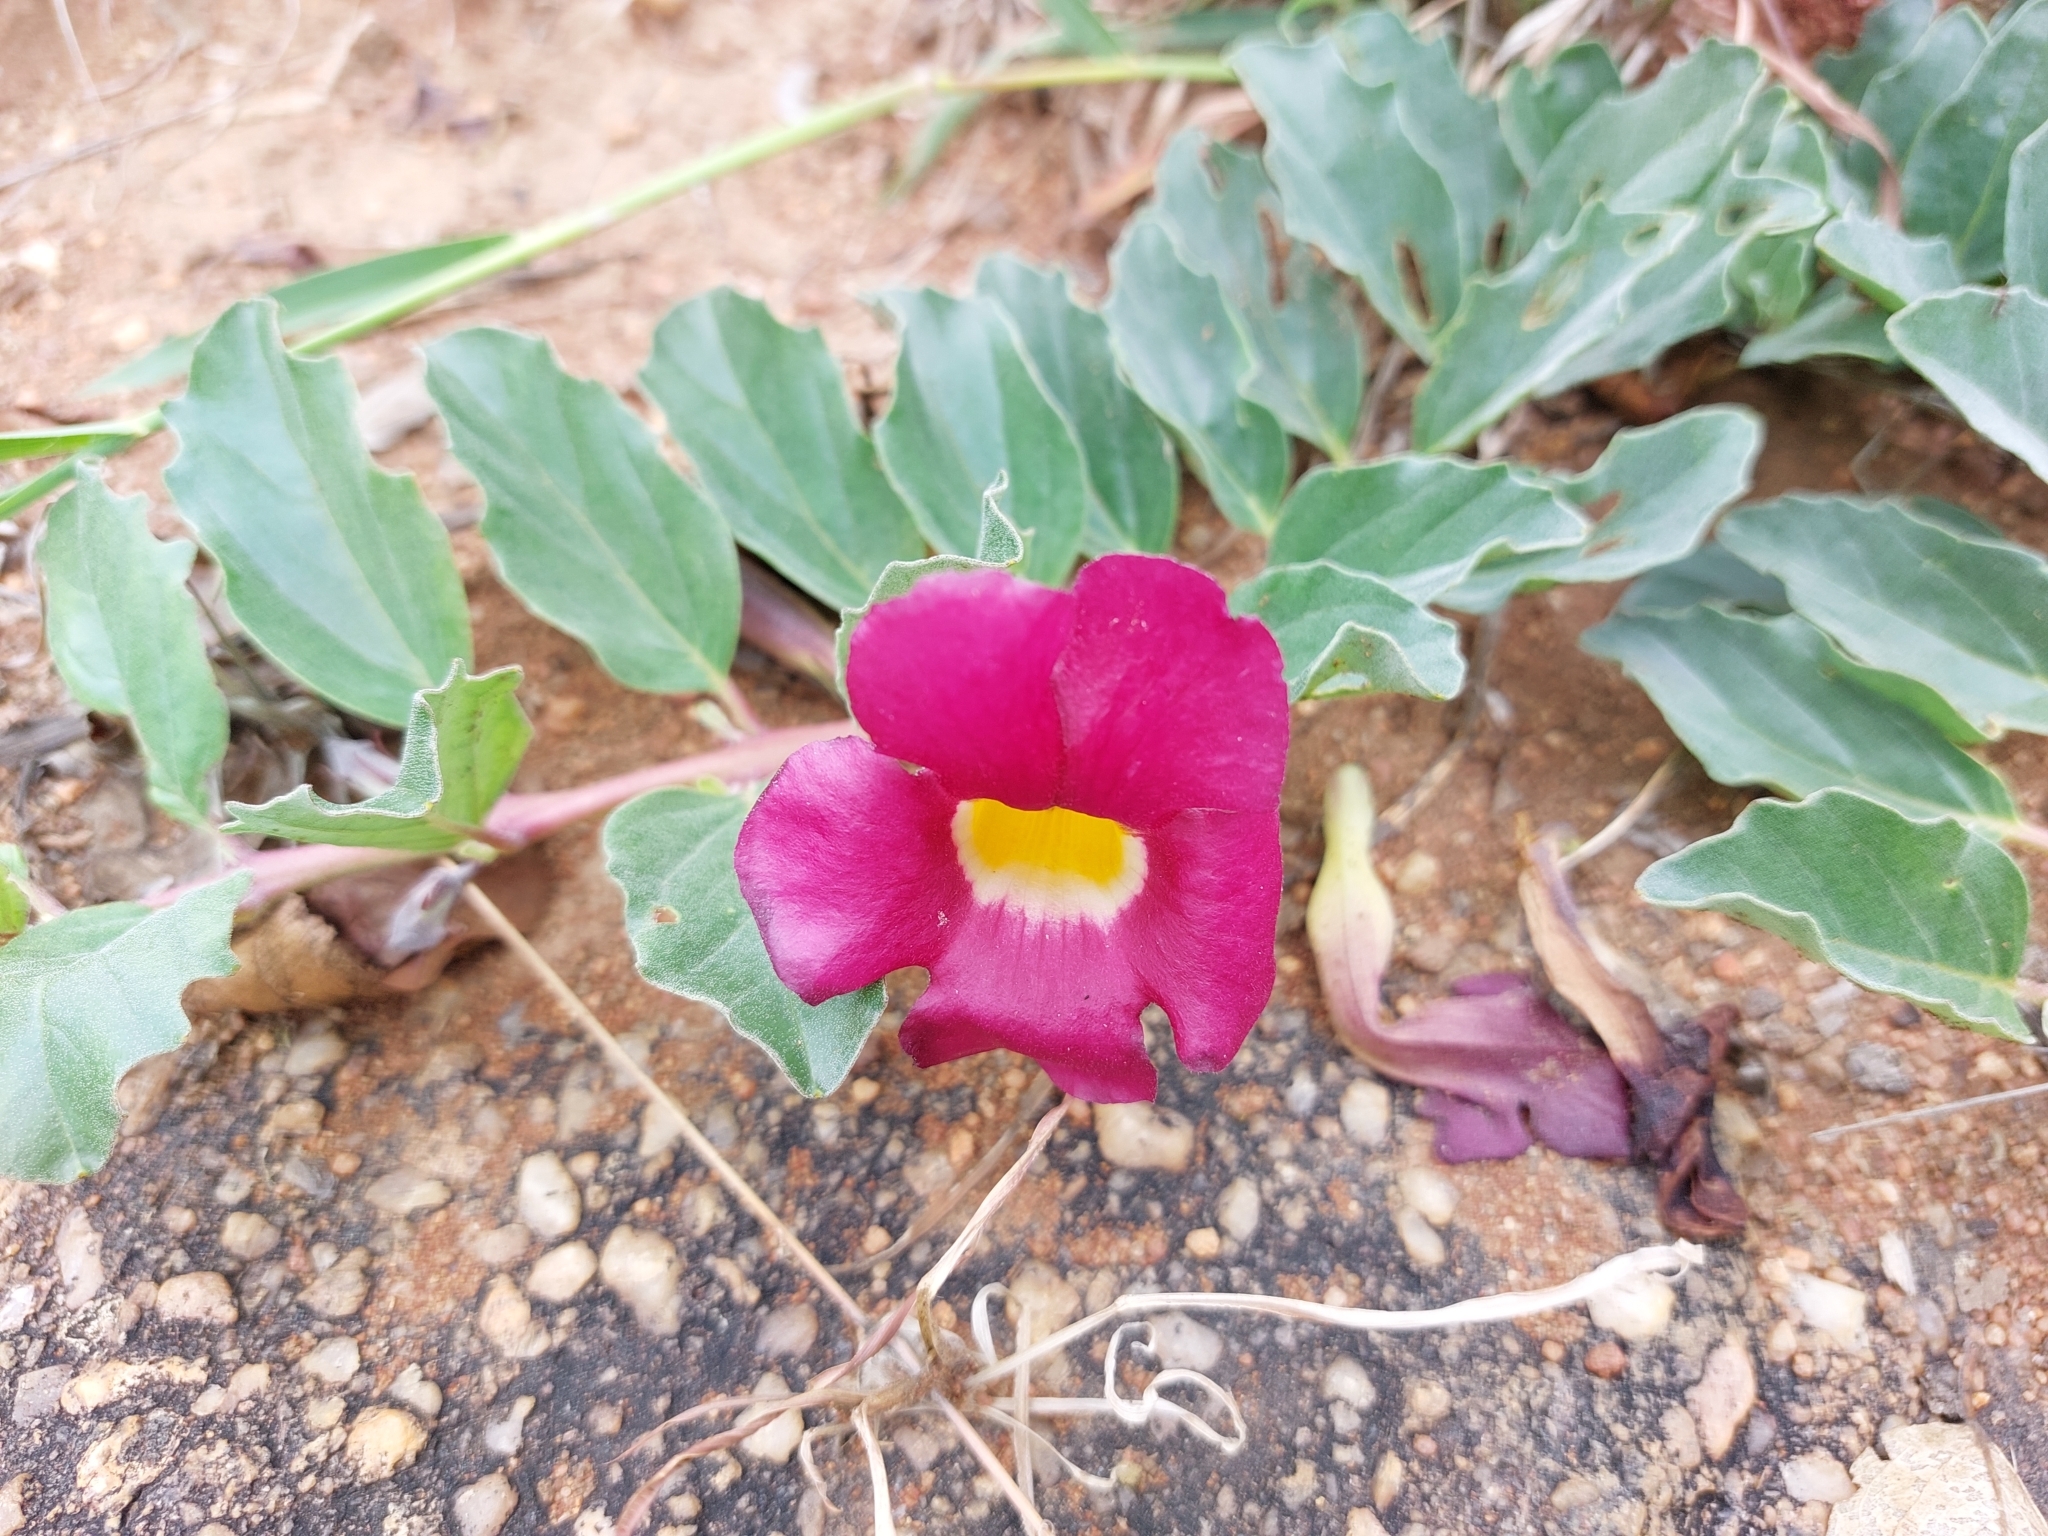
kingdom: Plantae
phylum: Tracheophyta
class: Magnoliopsida
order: Lamiales
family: Pedaliaceae
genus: Harpagophytum
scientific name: Harpagophytum zeyheri
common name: Grappleplant
